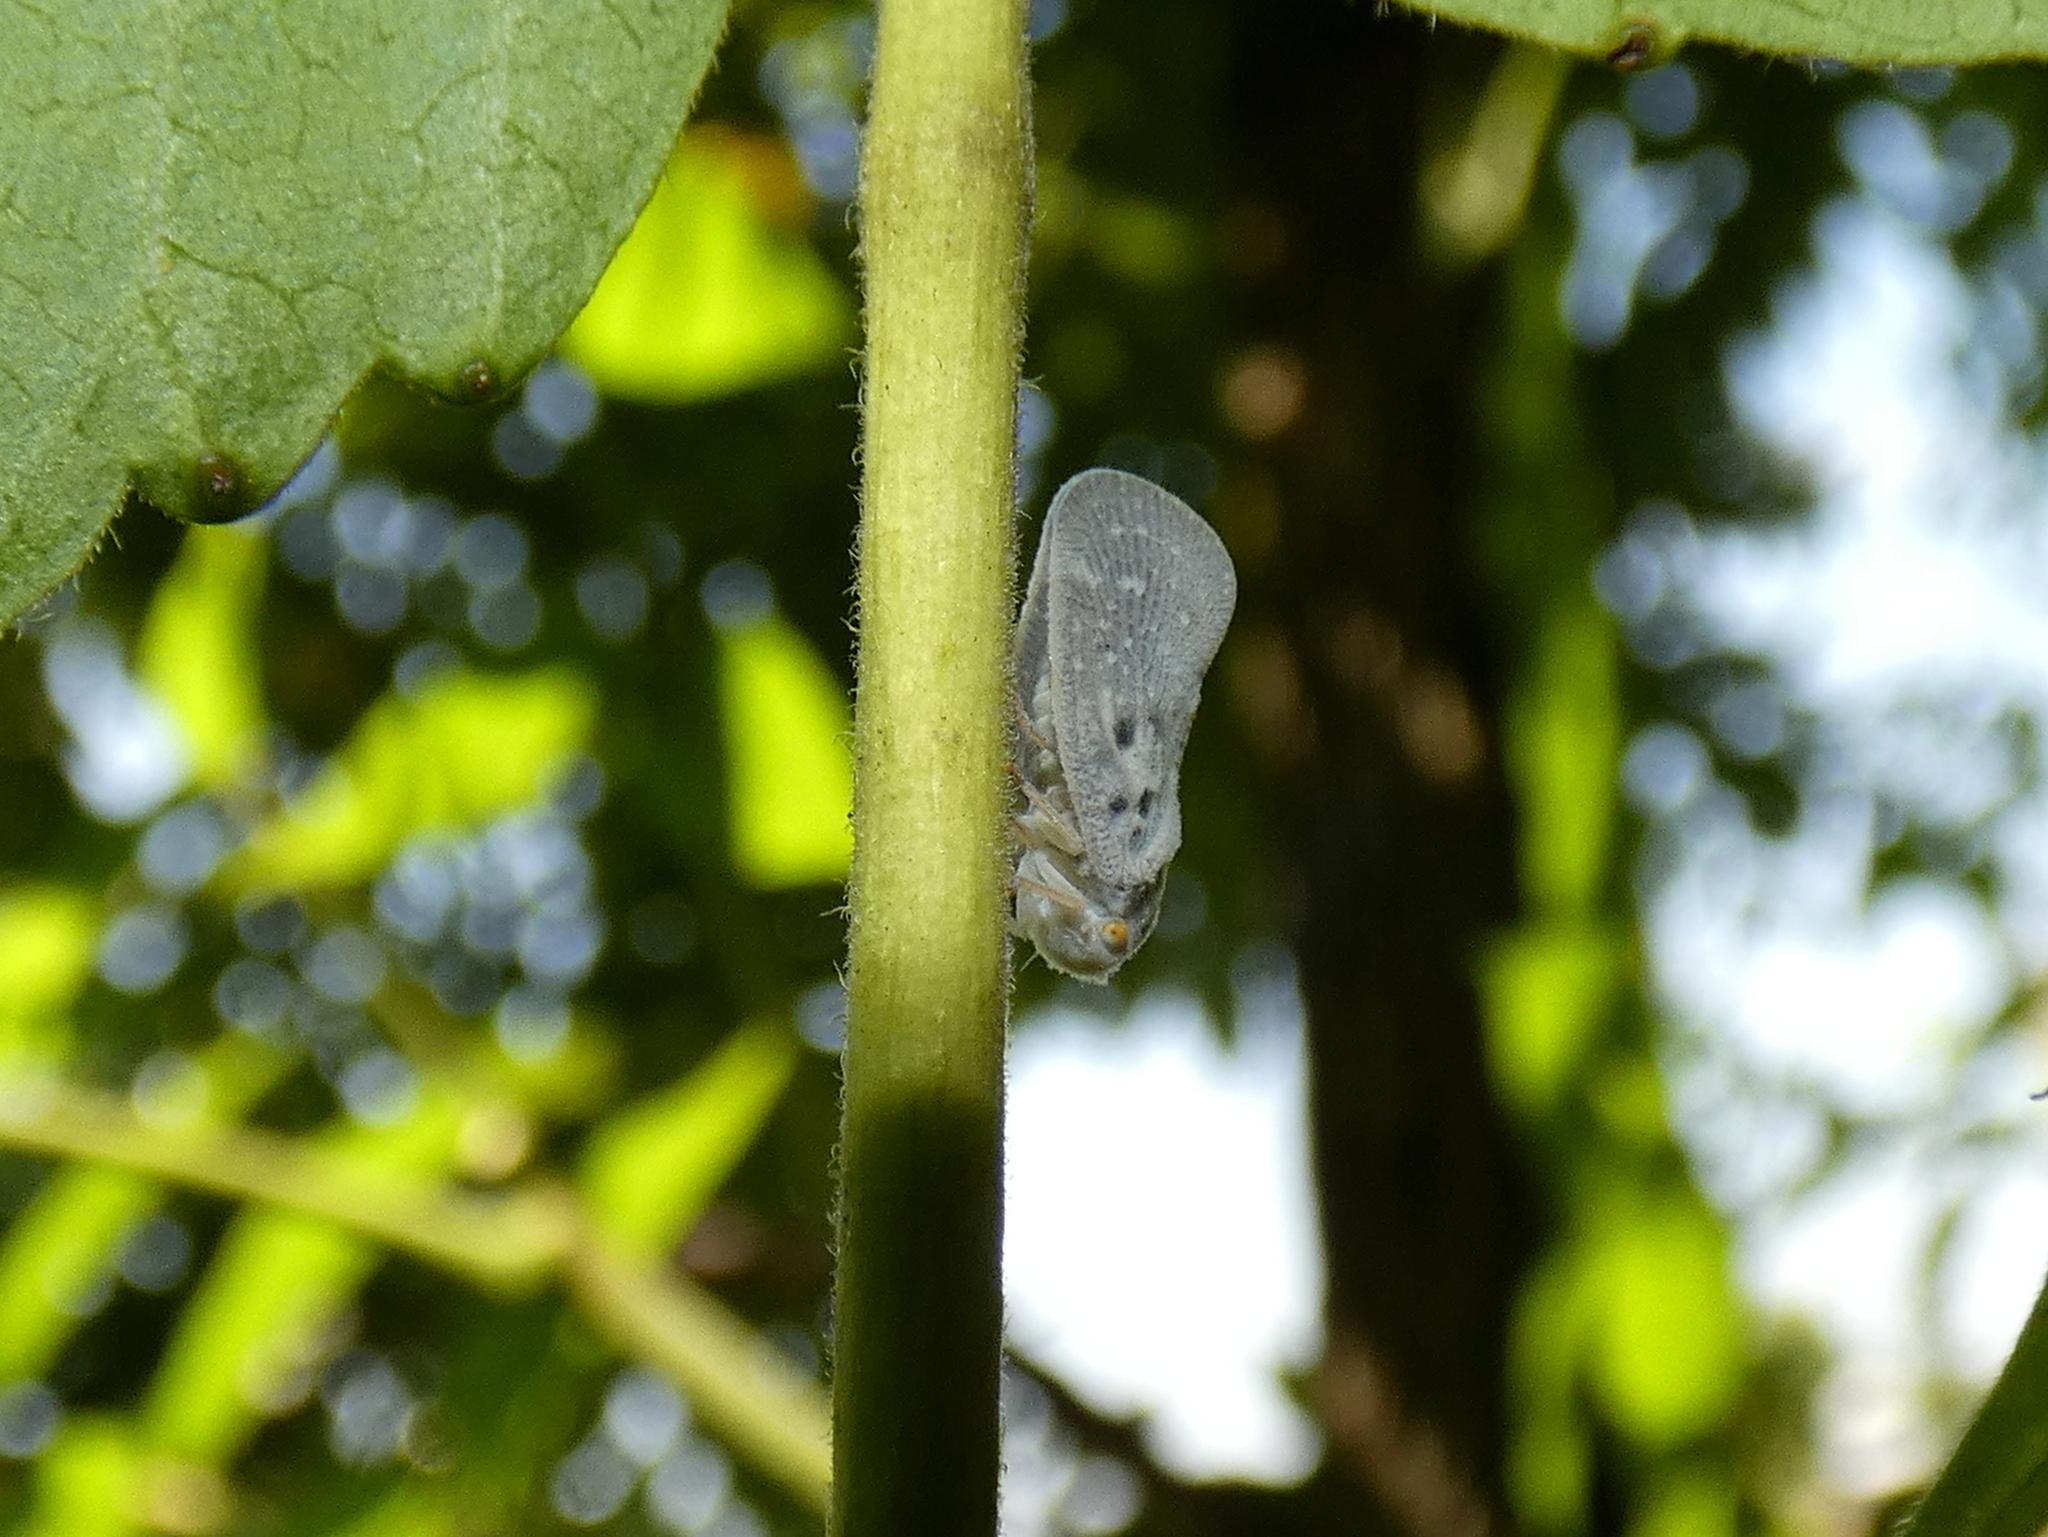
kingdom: Animalia
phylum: Arthropoda
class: Insecta
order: Hemiptera
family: Flatidae
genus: Metcalfa
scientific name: Metcalfa pruinosa
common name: Citrus flatid planthopper
